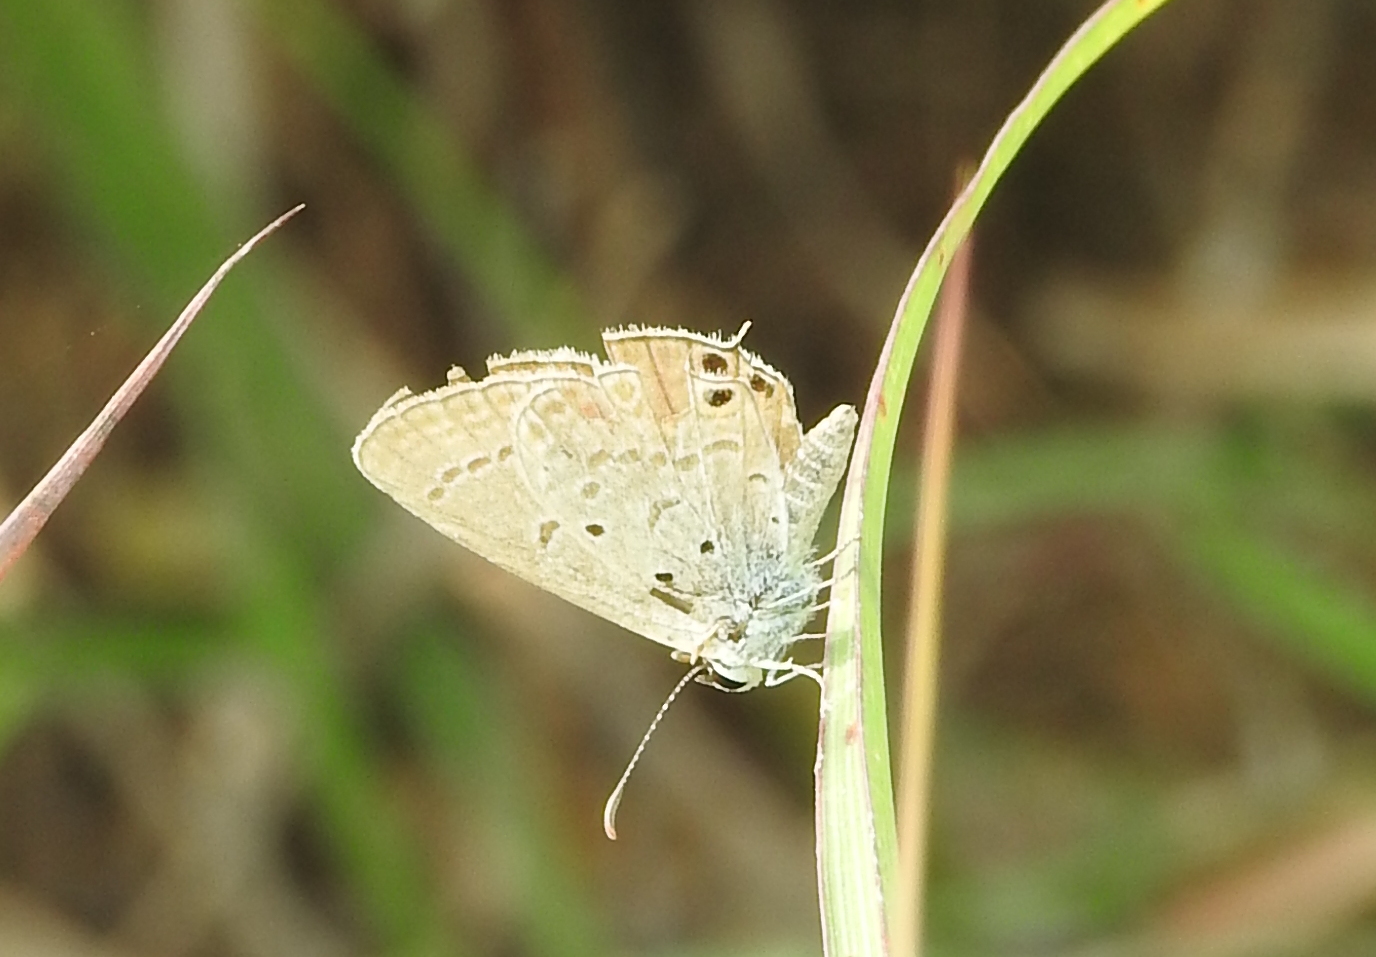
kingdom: Animalia
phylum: Arthropoda
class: Insecta
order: Lepidoptera
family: Lycaenidae
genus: Euchrysops
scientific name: Euchrysops cnejus
